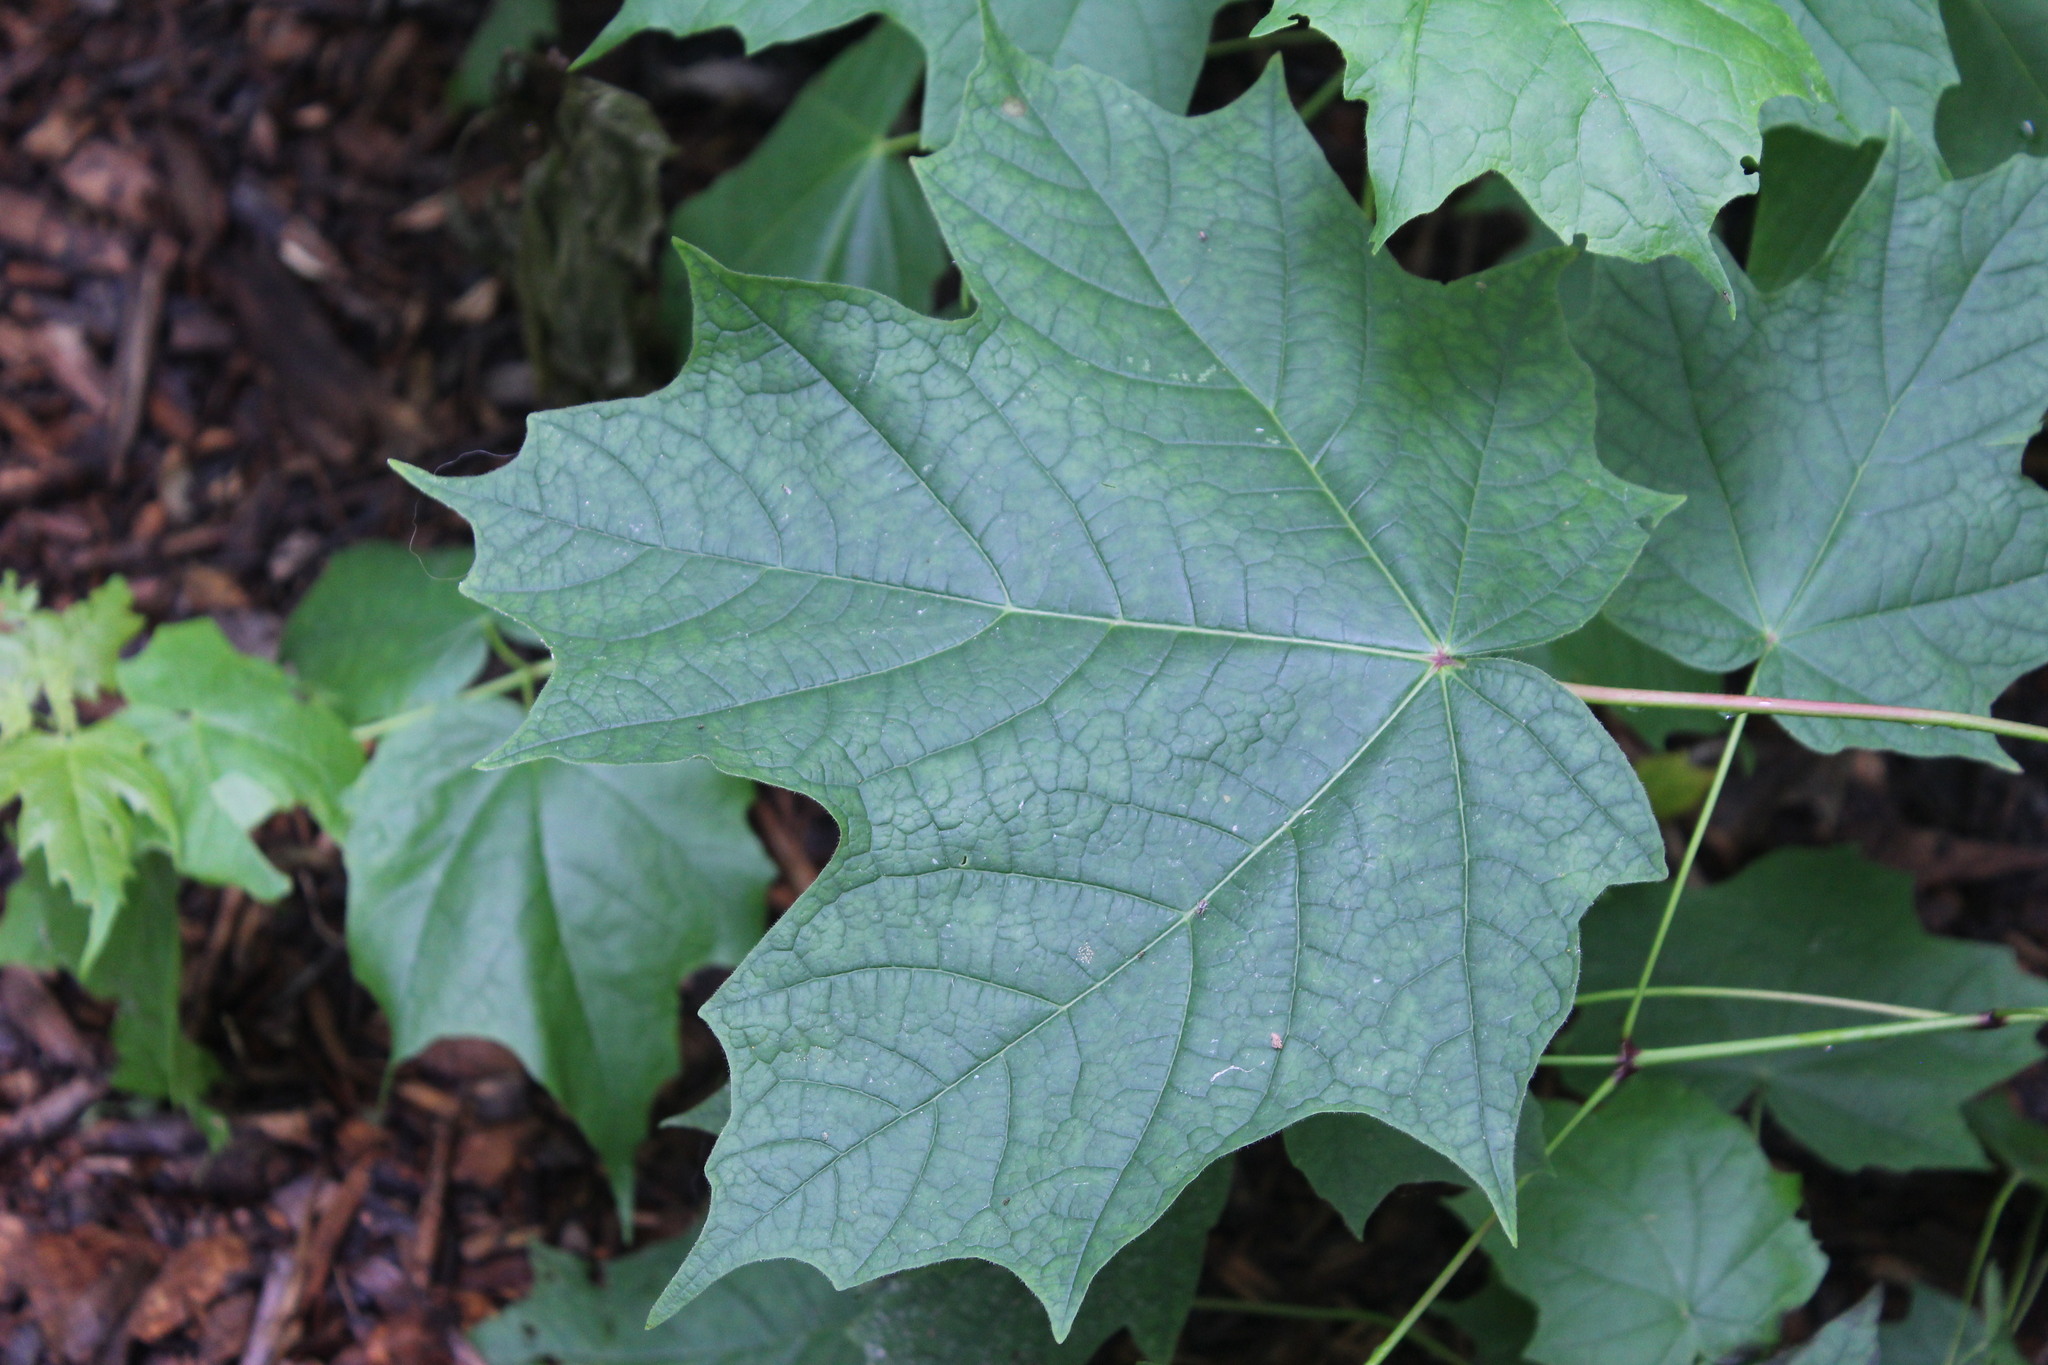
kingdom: Plantae
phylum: Tracheophyta
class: Magnoliopsida
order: Sapindales
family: Sapindaceae
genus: Acer
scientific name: Acer nigrum
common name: Black maple
